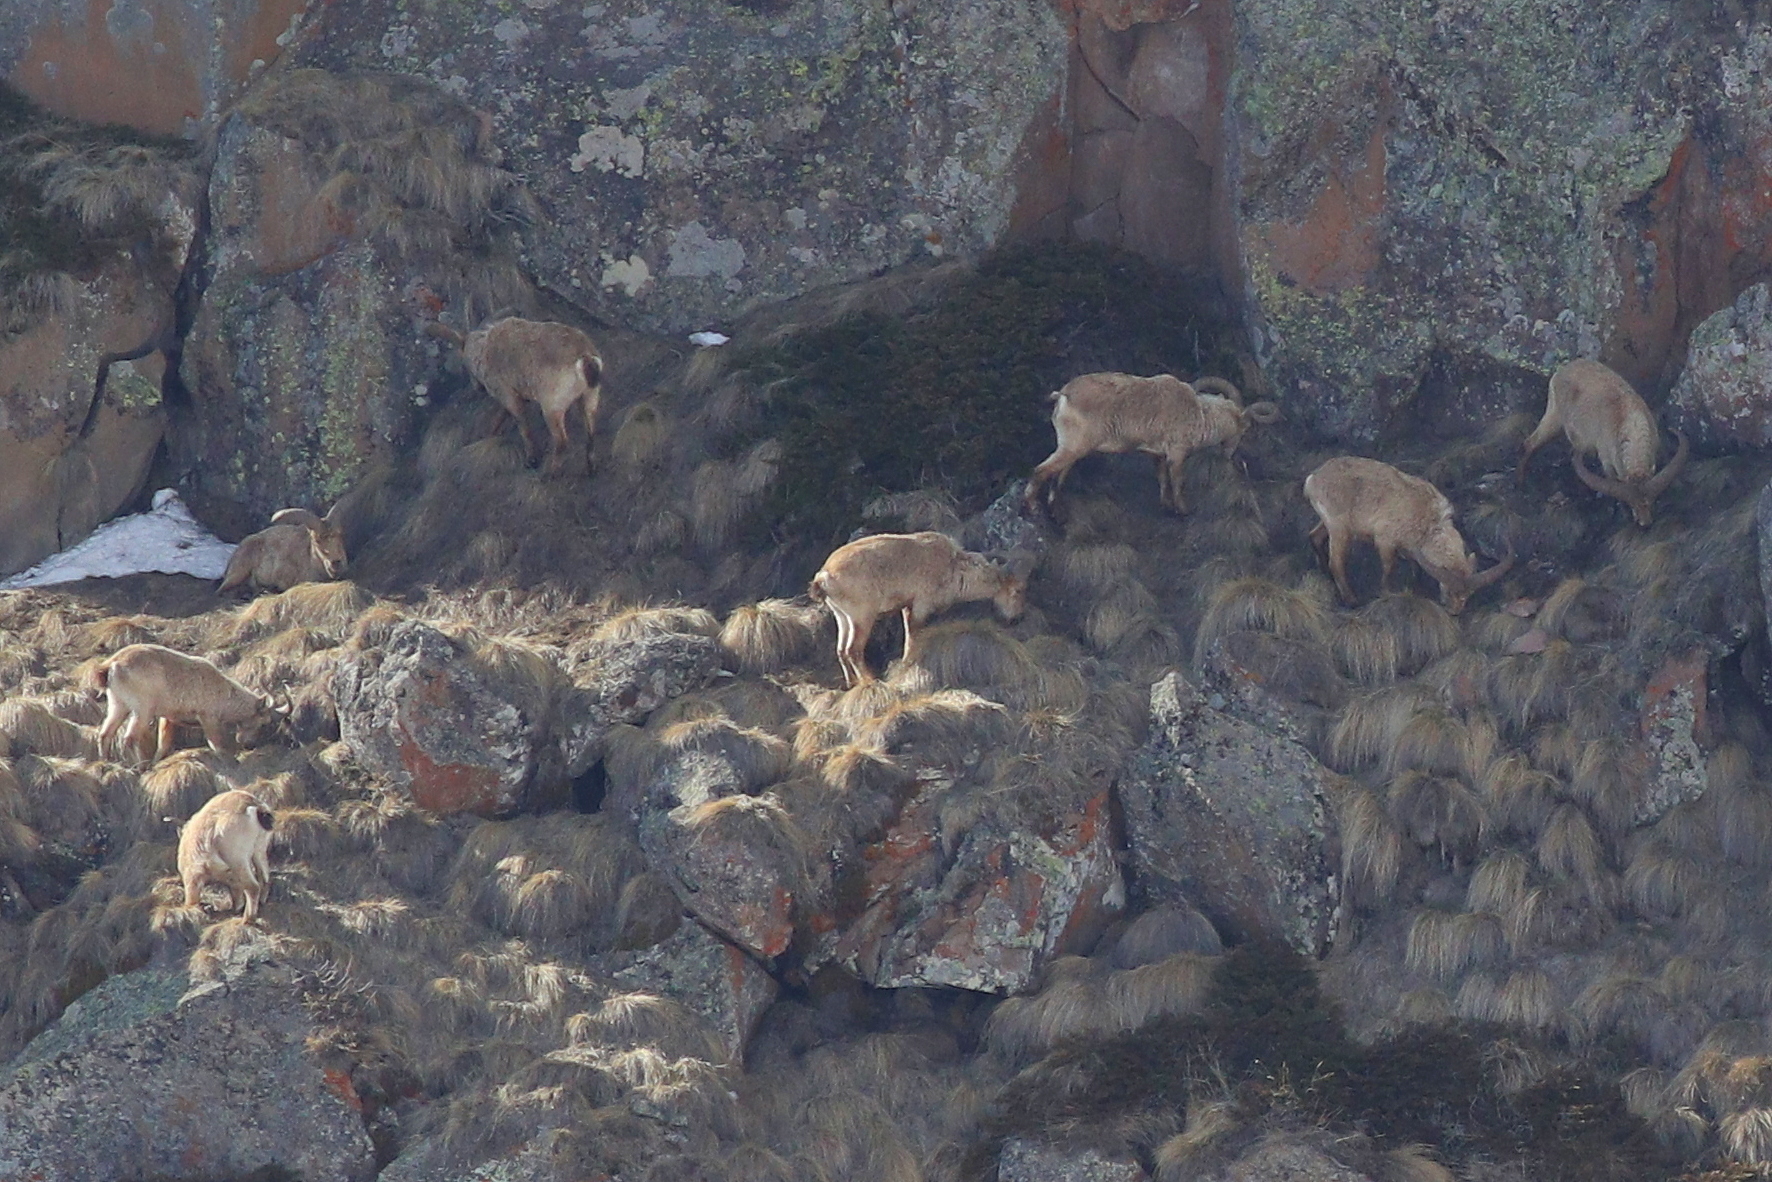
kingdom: Animalia
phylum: Chordata
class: Mammalia
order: Artiodactyla
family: Bovidae
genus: Capra
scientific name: Capra caucasica
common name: Tur
